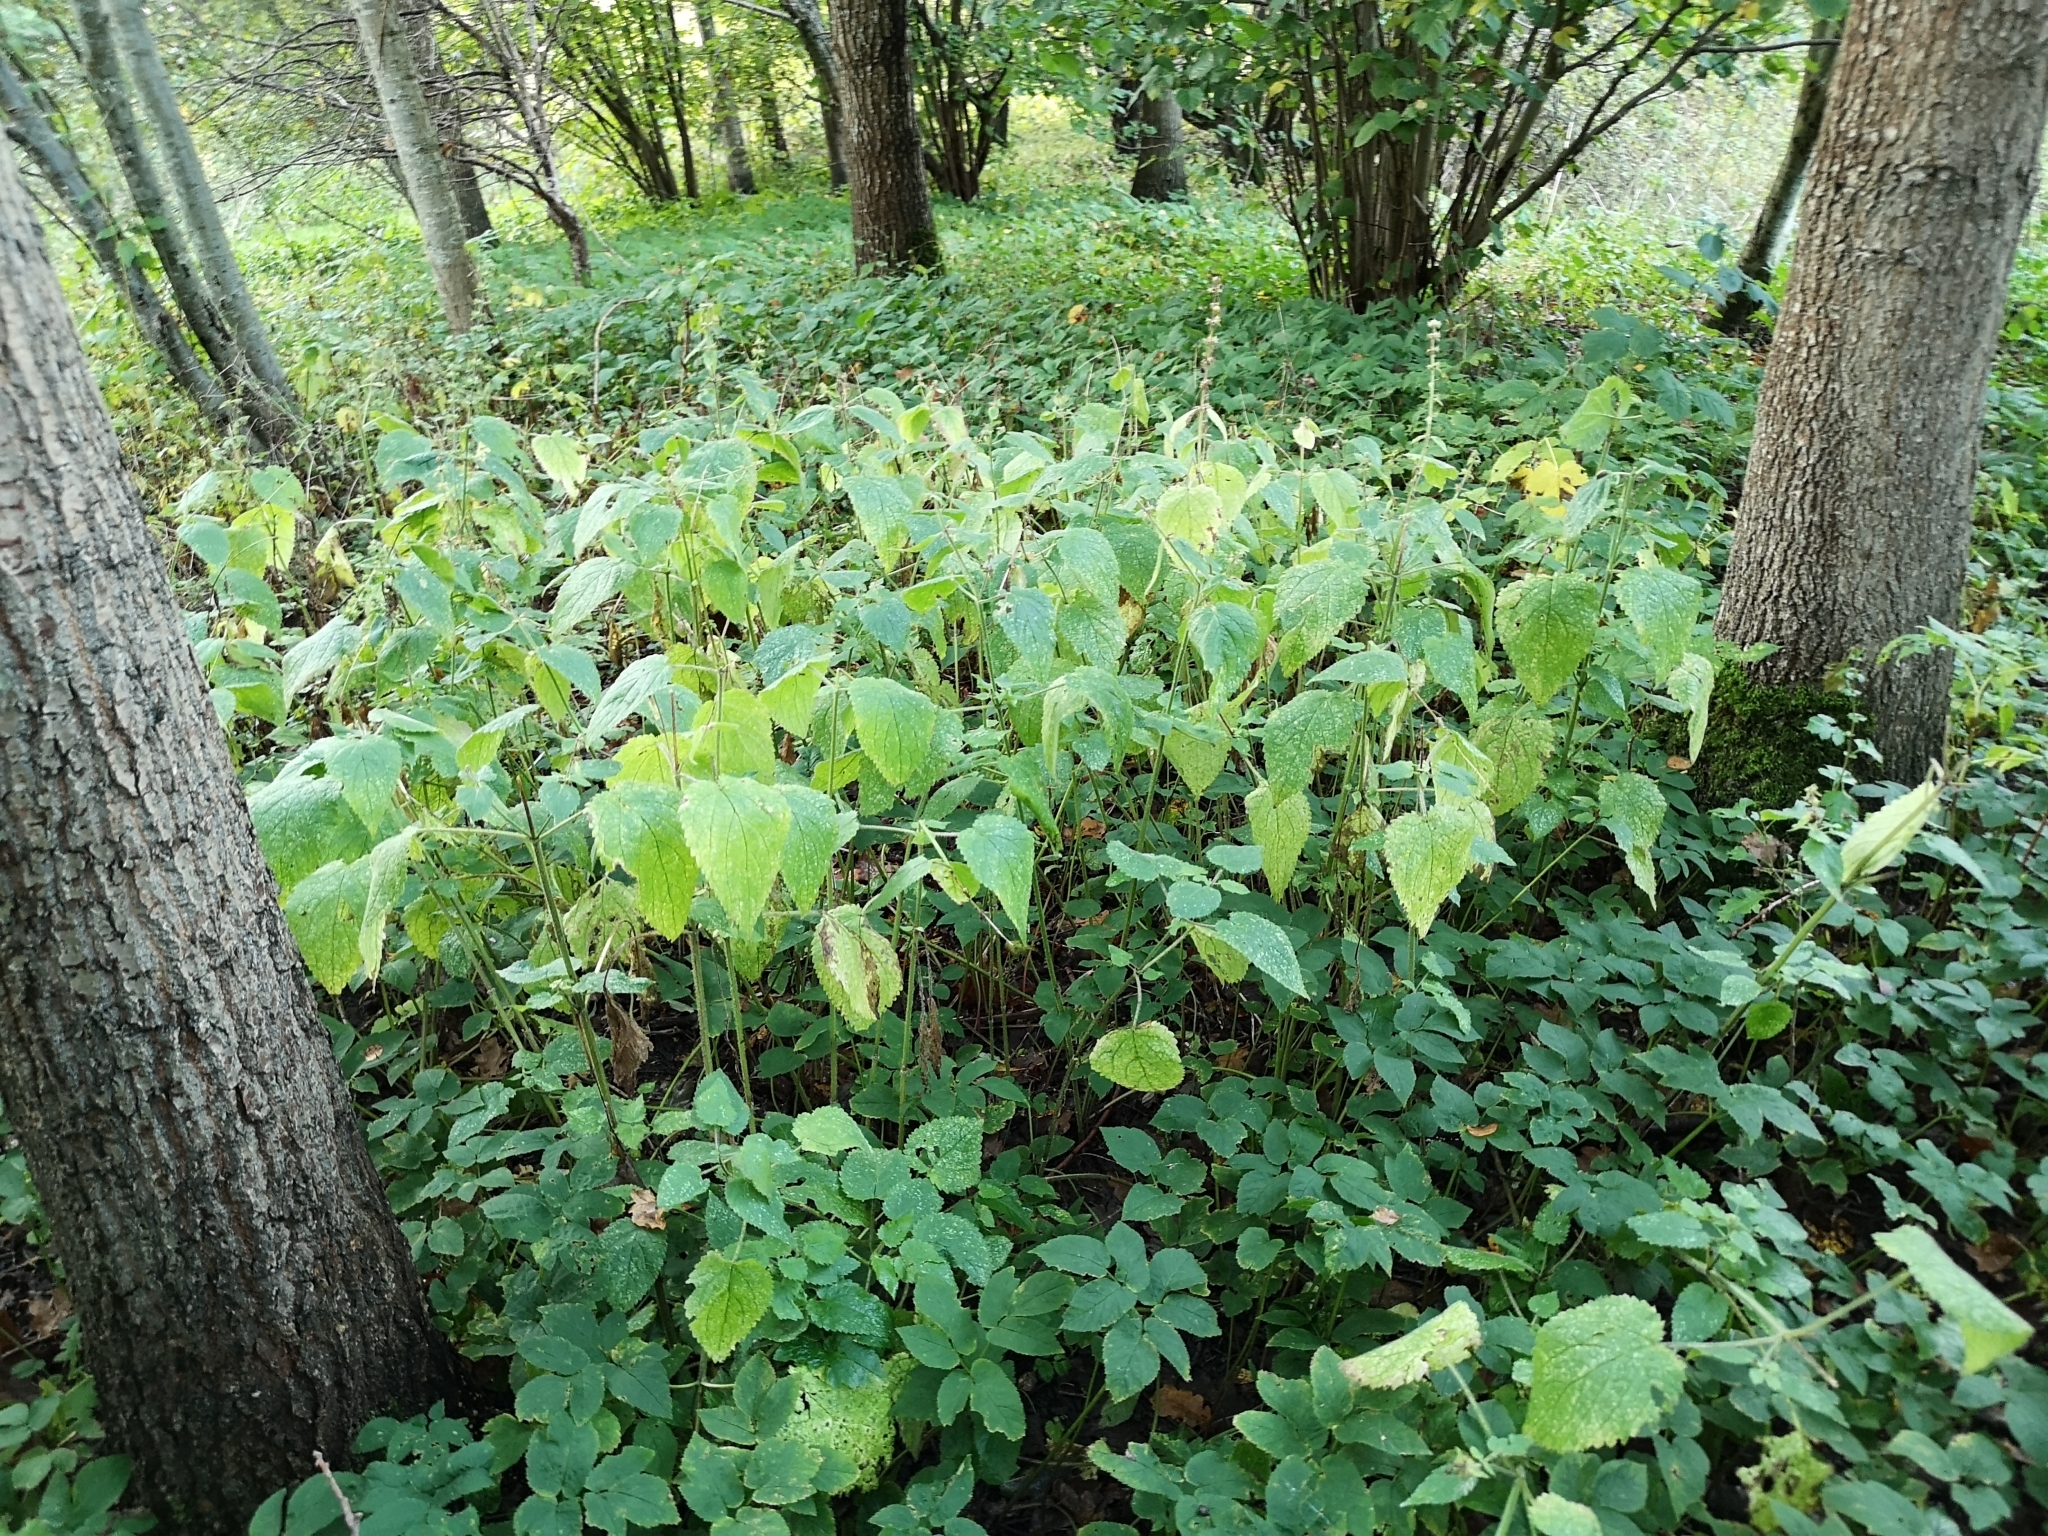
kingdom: Plantae
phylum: Tracheophyta
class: Magnoliopsida
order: Lamiales
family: Lamiaceae
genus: Stachys
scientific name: Stachys sylvatica
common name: Hedge woundwort
